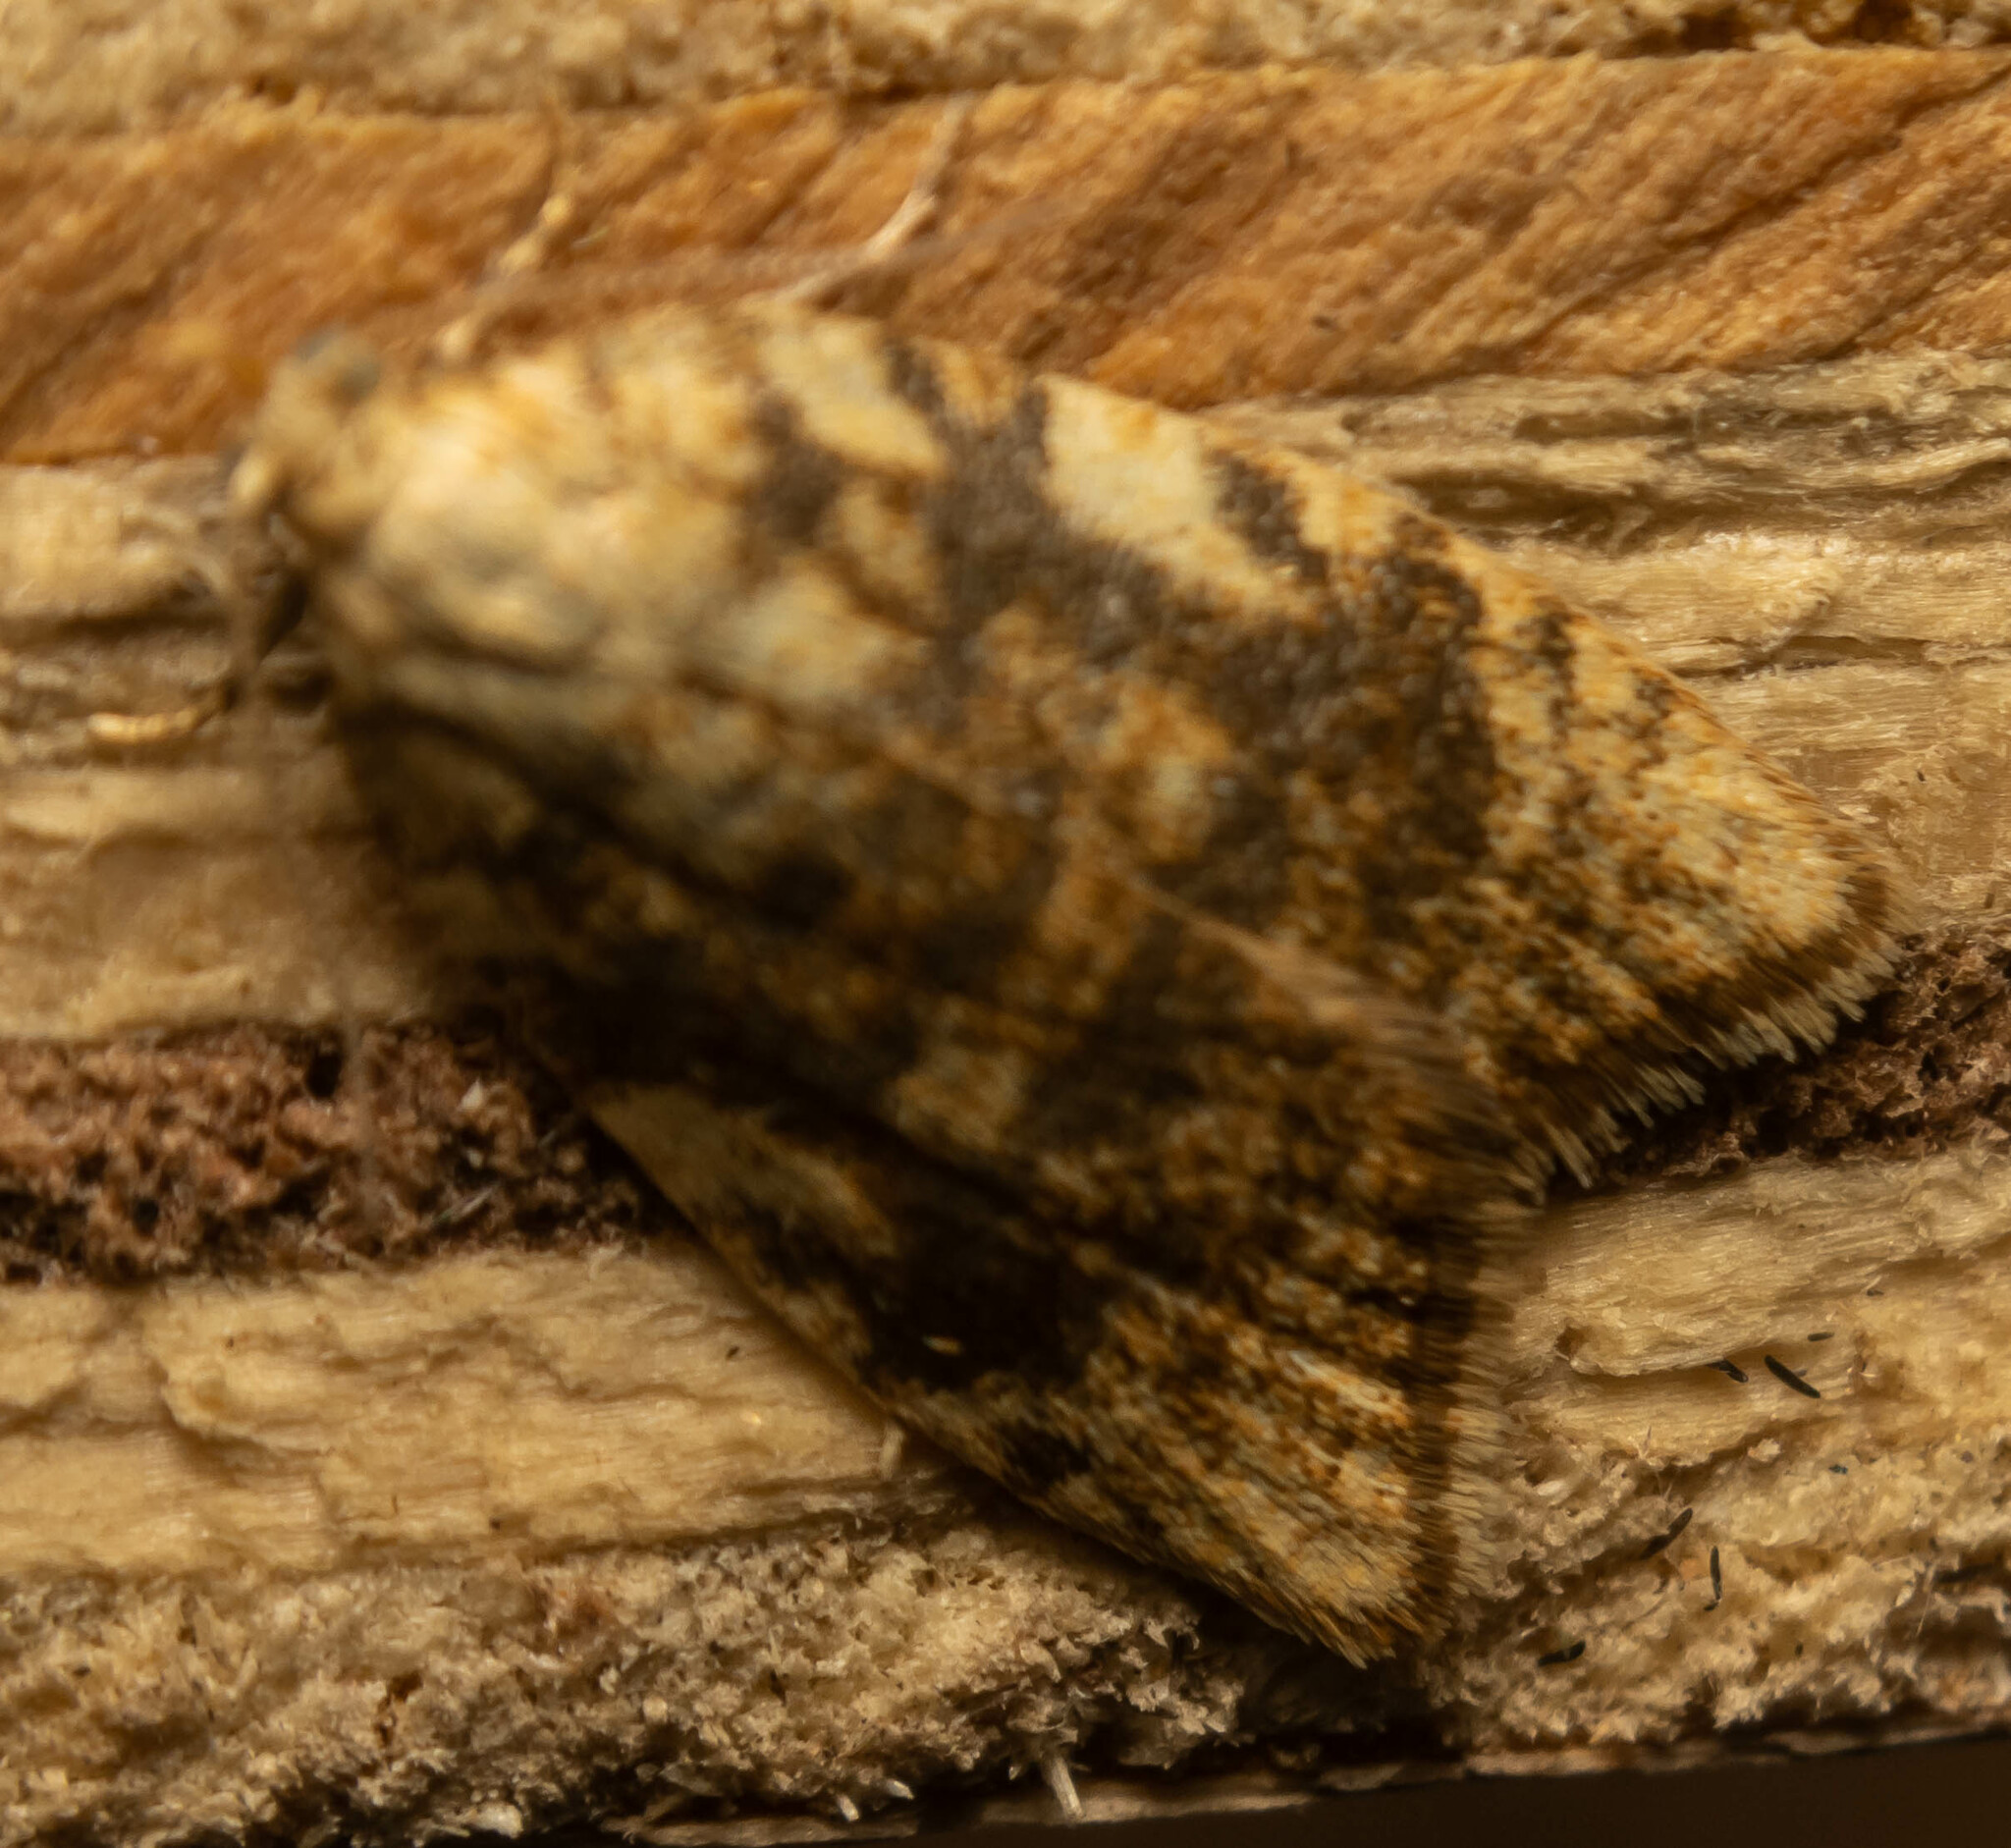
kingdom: Animalia
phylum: Arthropoda
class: Insecta
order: Lepidoptera
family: Tortricidae
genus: Aleimma
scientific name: Aleimma loeflingiana
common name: Yellow oak button
